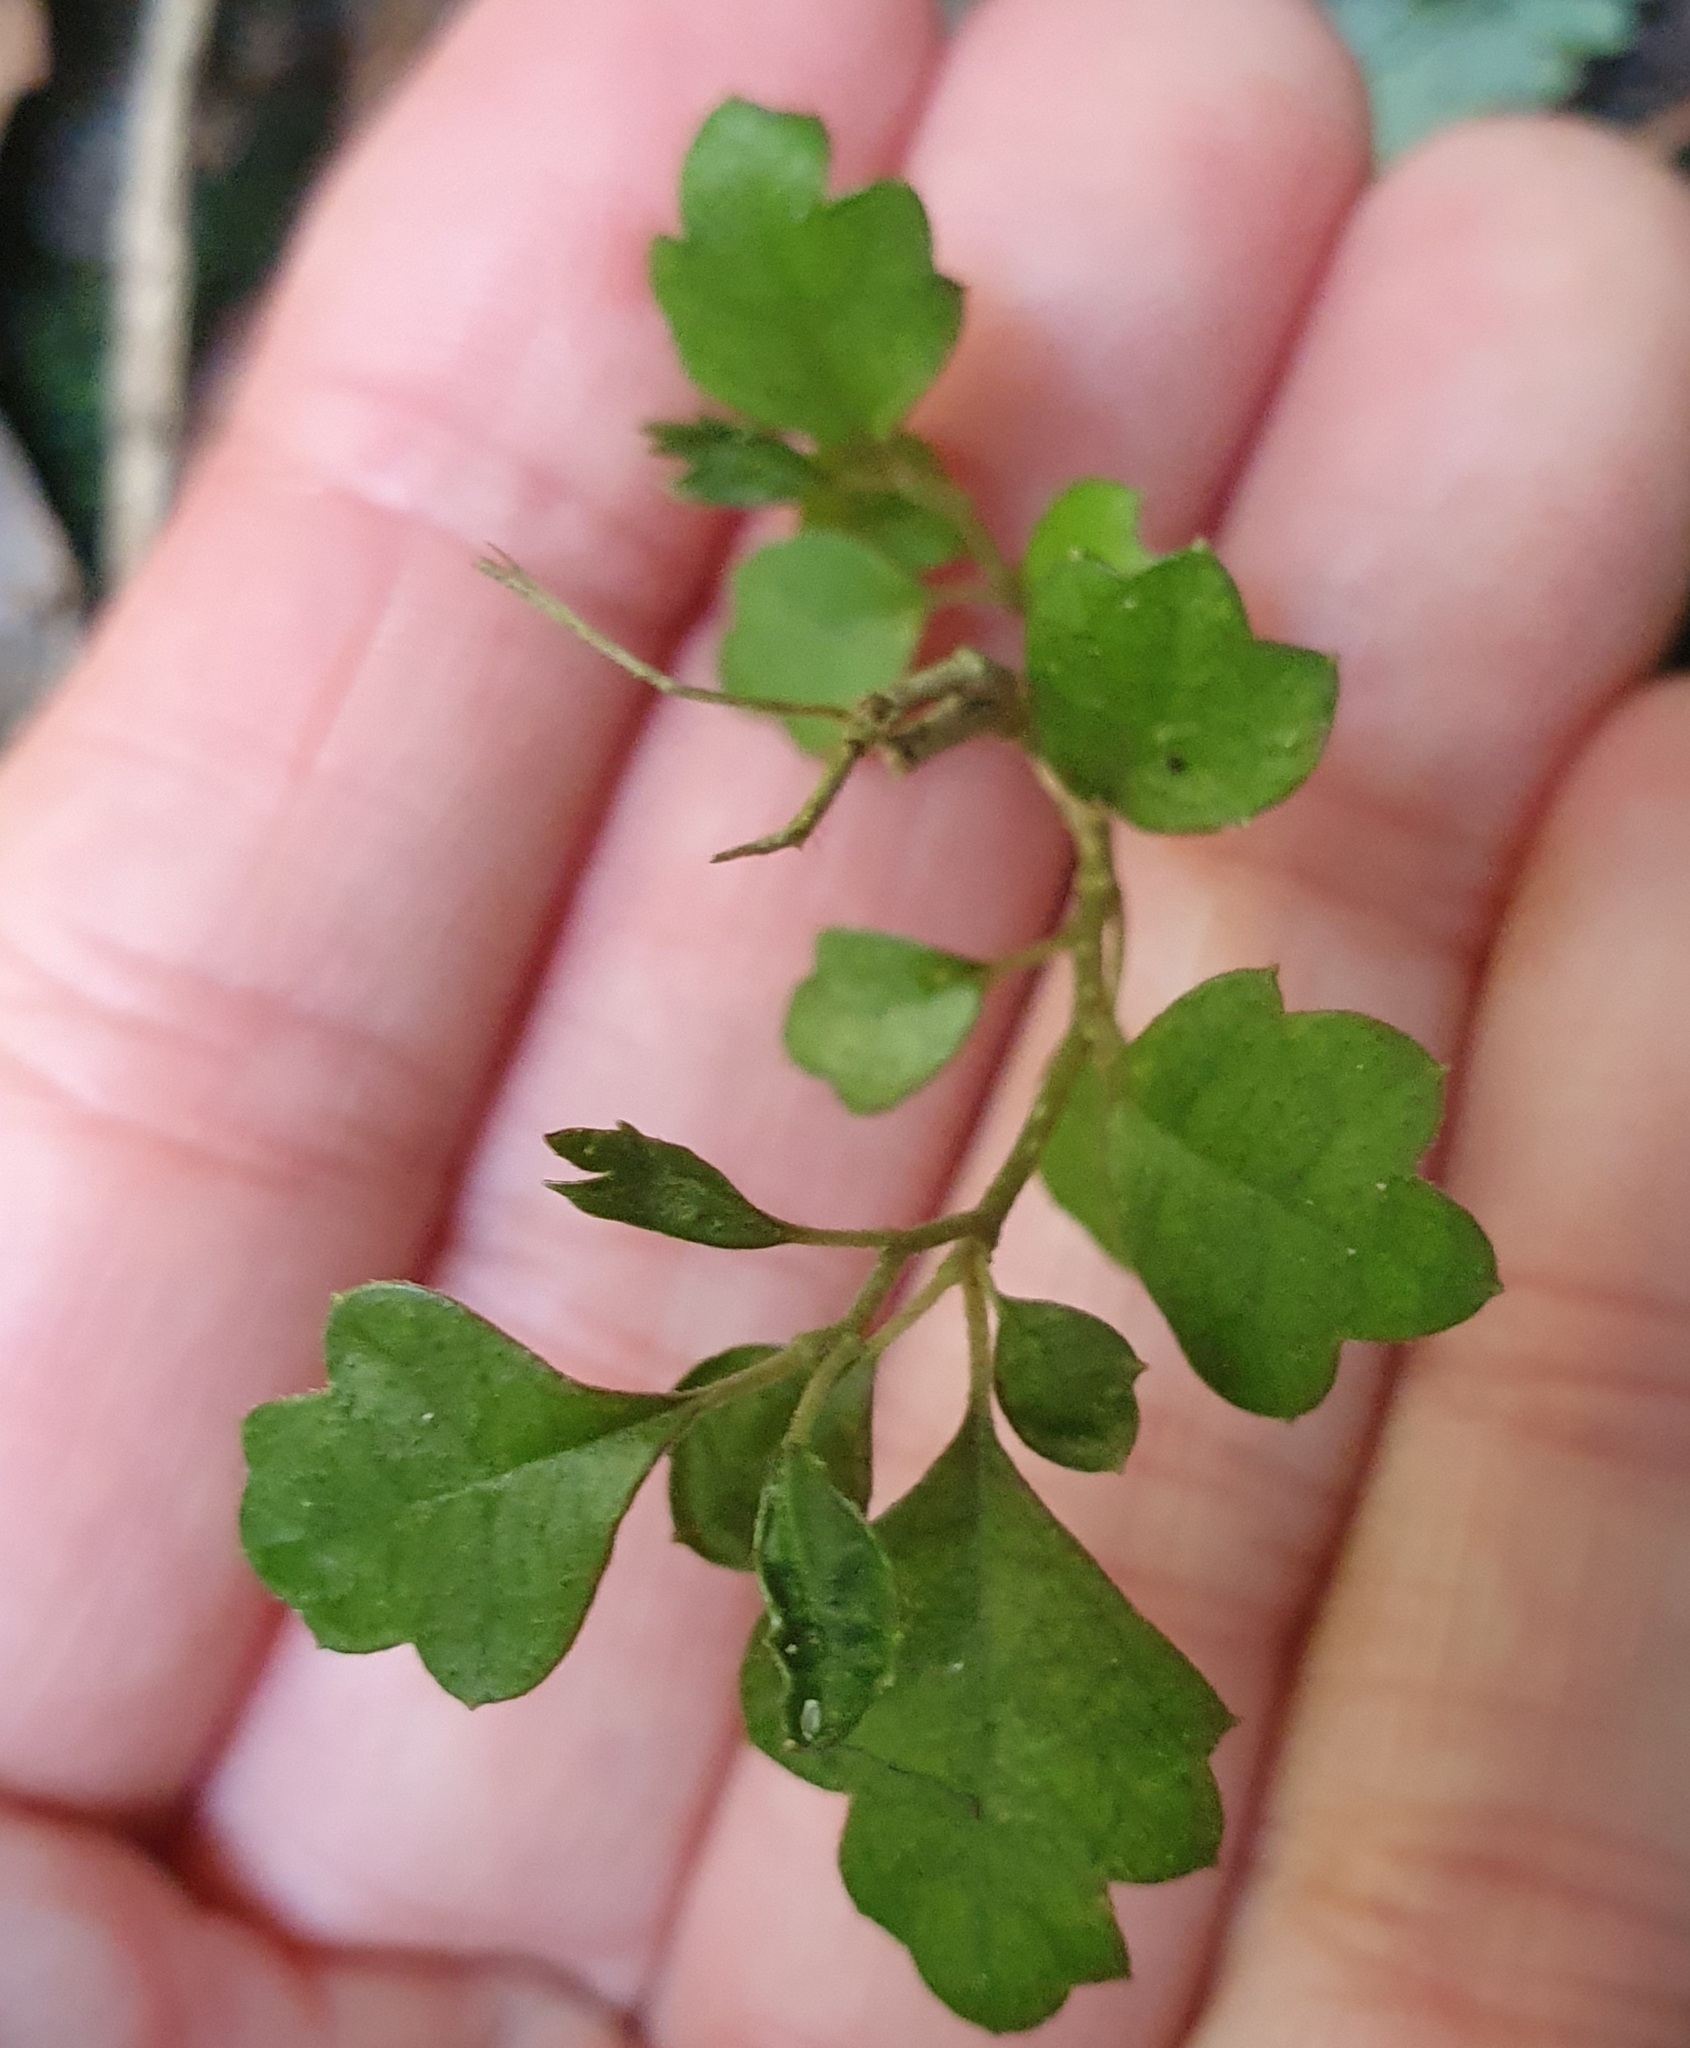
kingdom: Plantae
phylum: Tracheophyta
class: Magnoliopsida
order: Apiales
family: Pennantiaceae
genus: Pennantia
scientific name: Pennantia corymbosa
